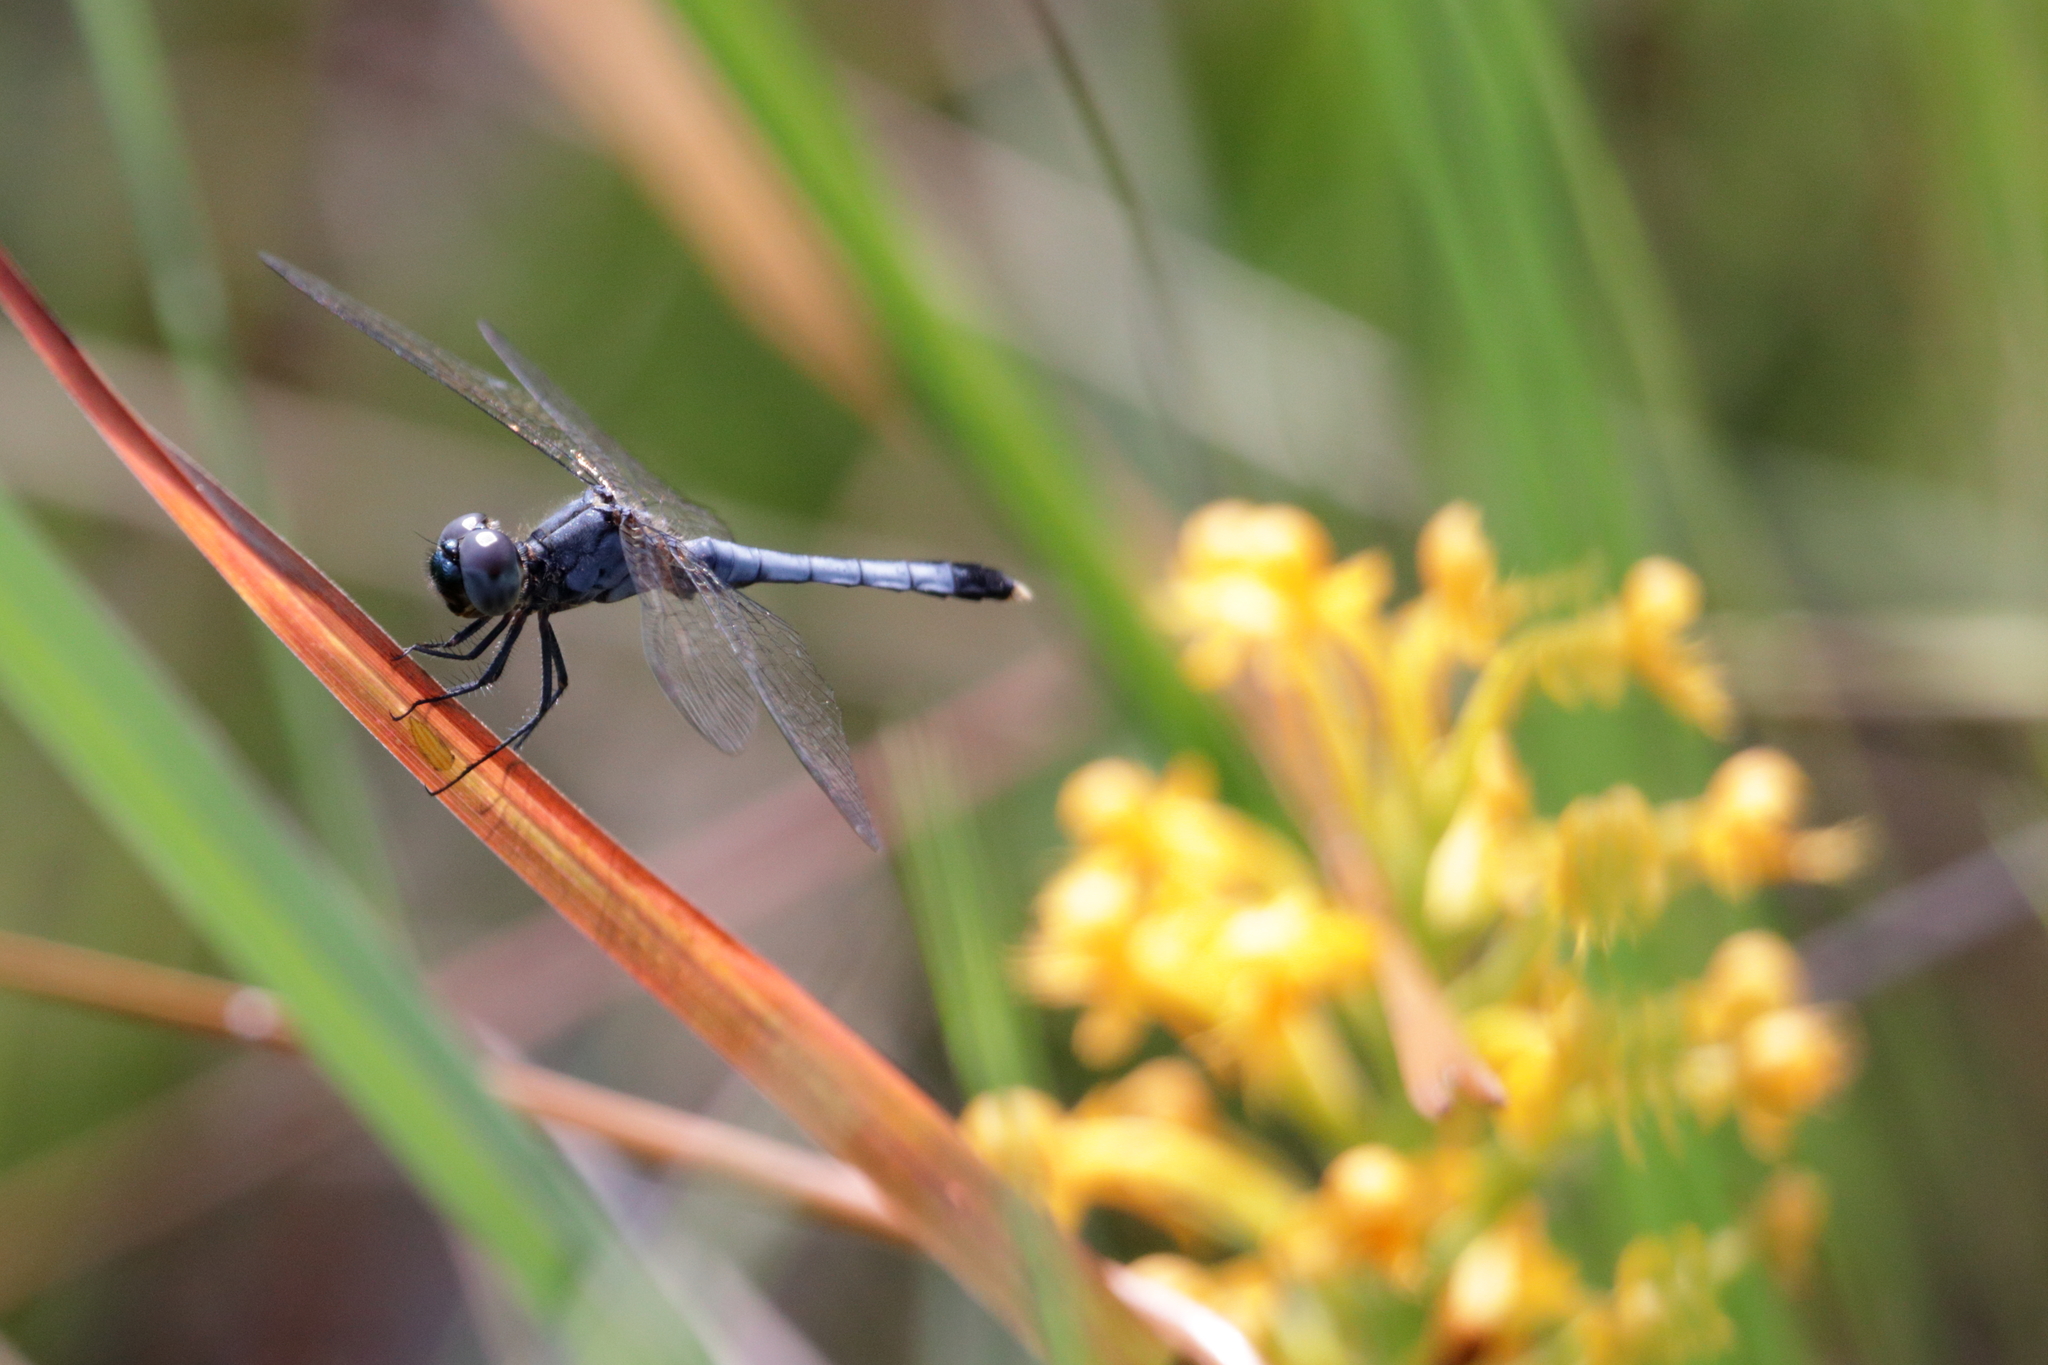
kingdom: Animalia
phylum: Arthropoda
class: Insecta
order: Odonata
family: Libellulidae
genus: Erythrodiplax
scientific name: Erythrodiplax minuscula
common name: Little blue dragonlet
